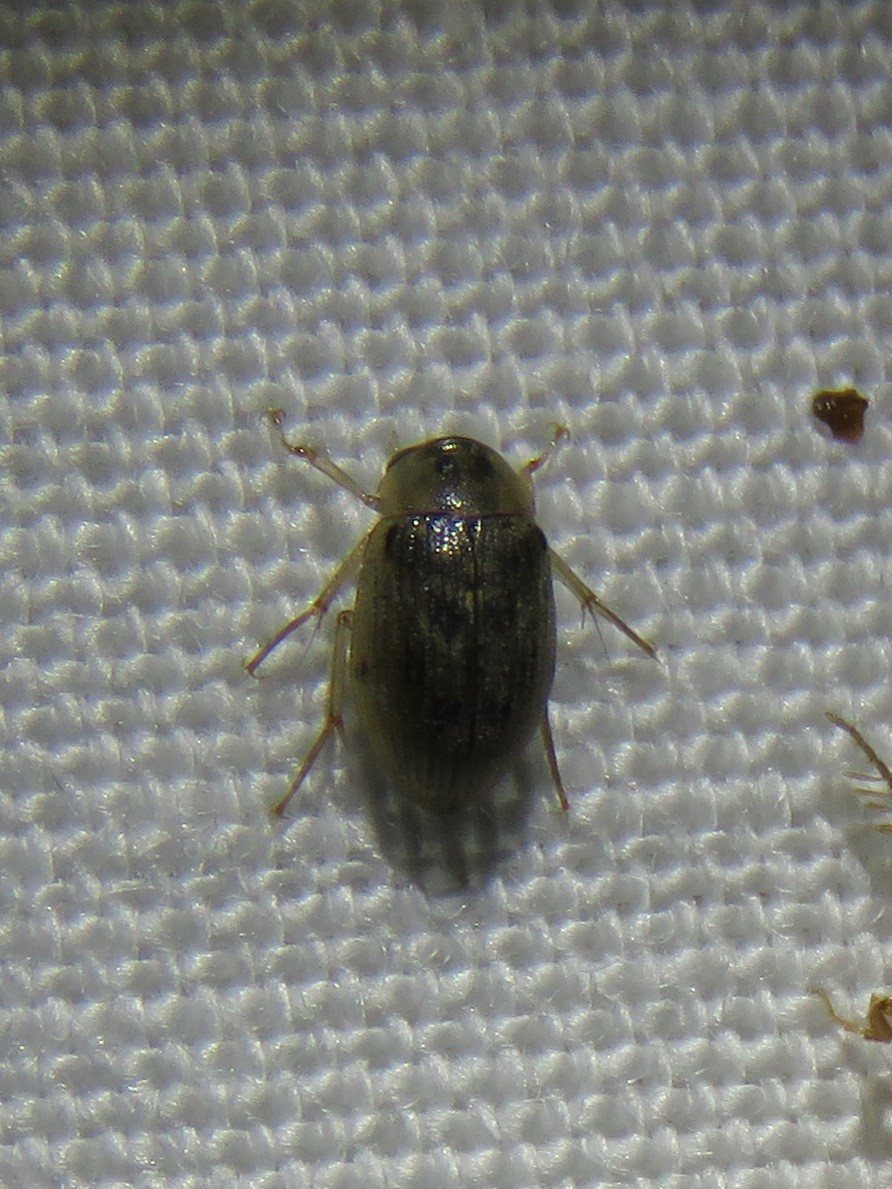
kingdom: Animalia
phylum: Arthropoda
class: Insecta
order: Coleoptera
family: Hydrophilidae
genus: Berosus
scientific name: Berosus
